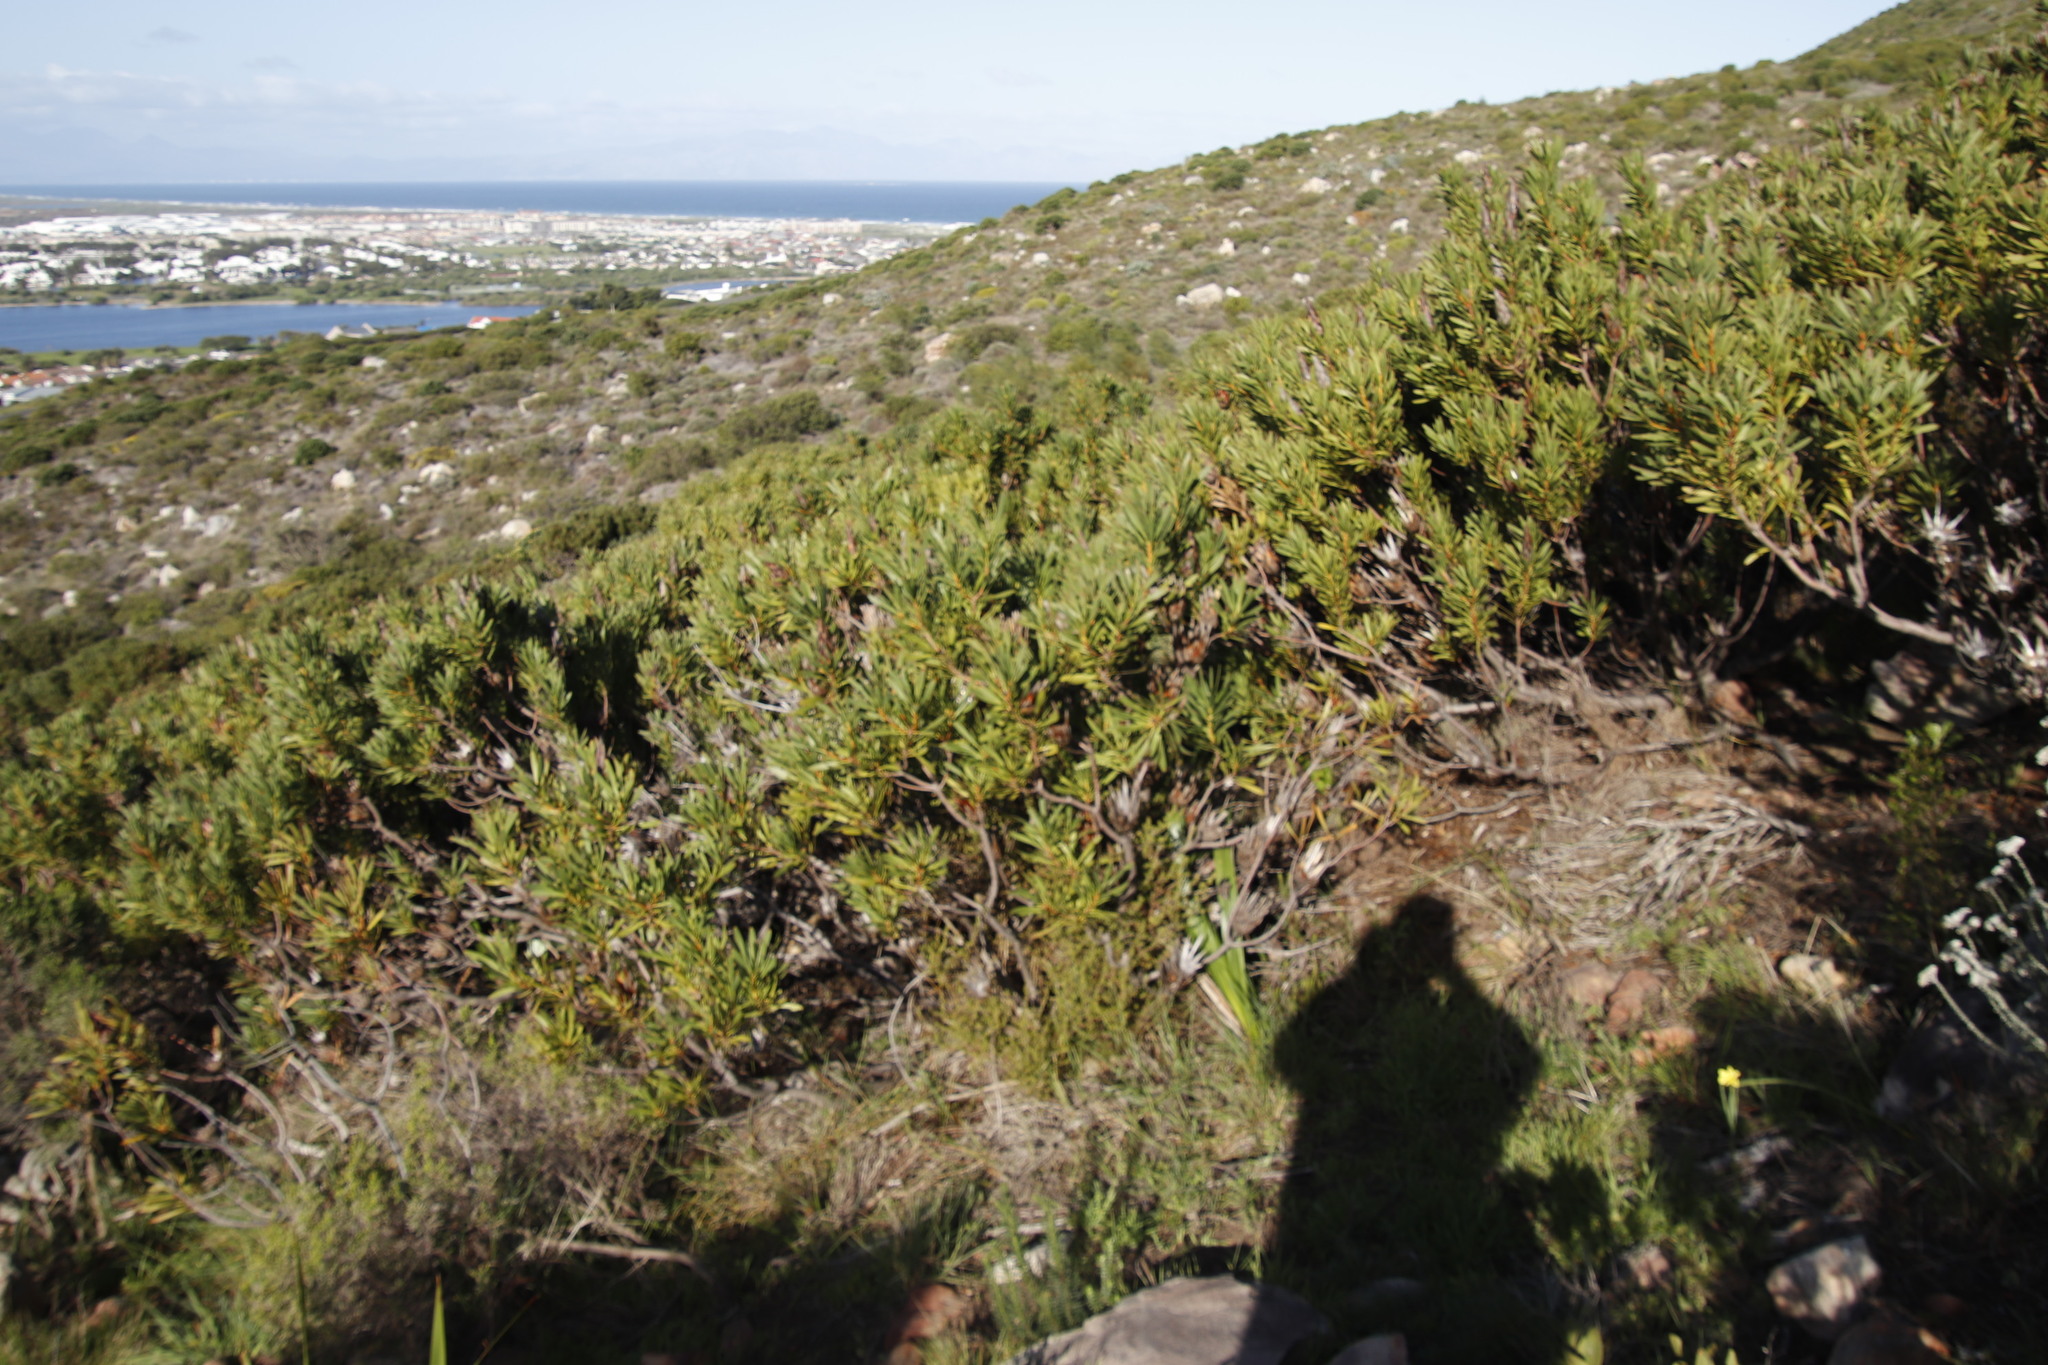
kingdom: Plantae
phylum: Tracheophyta
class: Magnoliopsida
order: Proteales
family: Proteaceae
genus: Protea
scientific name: Protea repens
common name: Sugarbush
